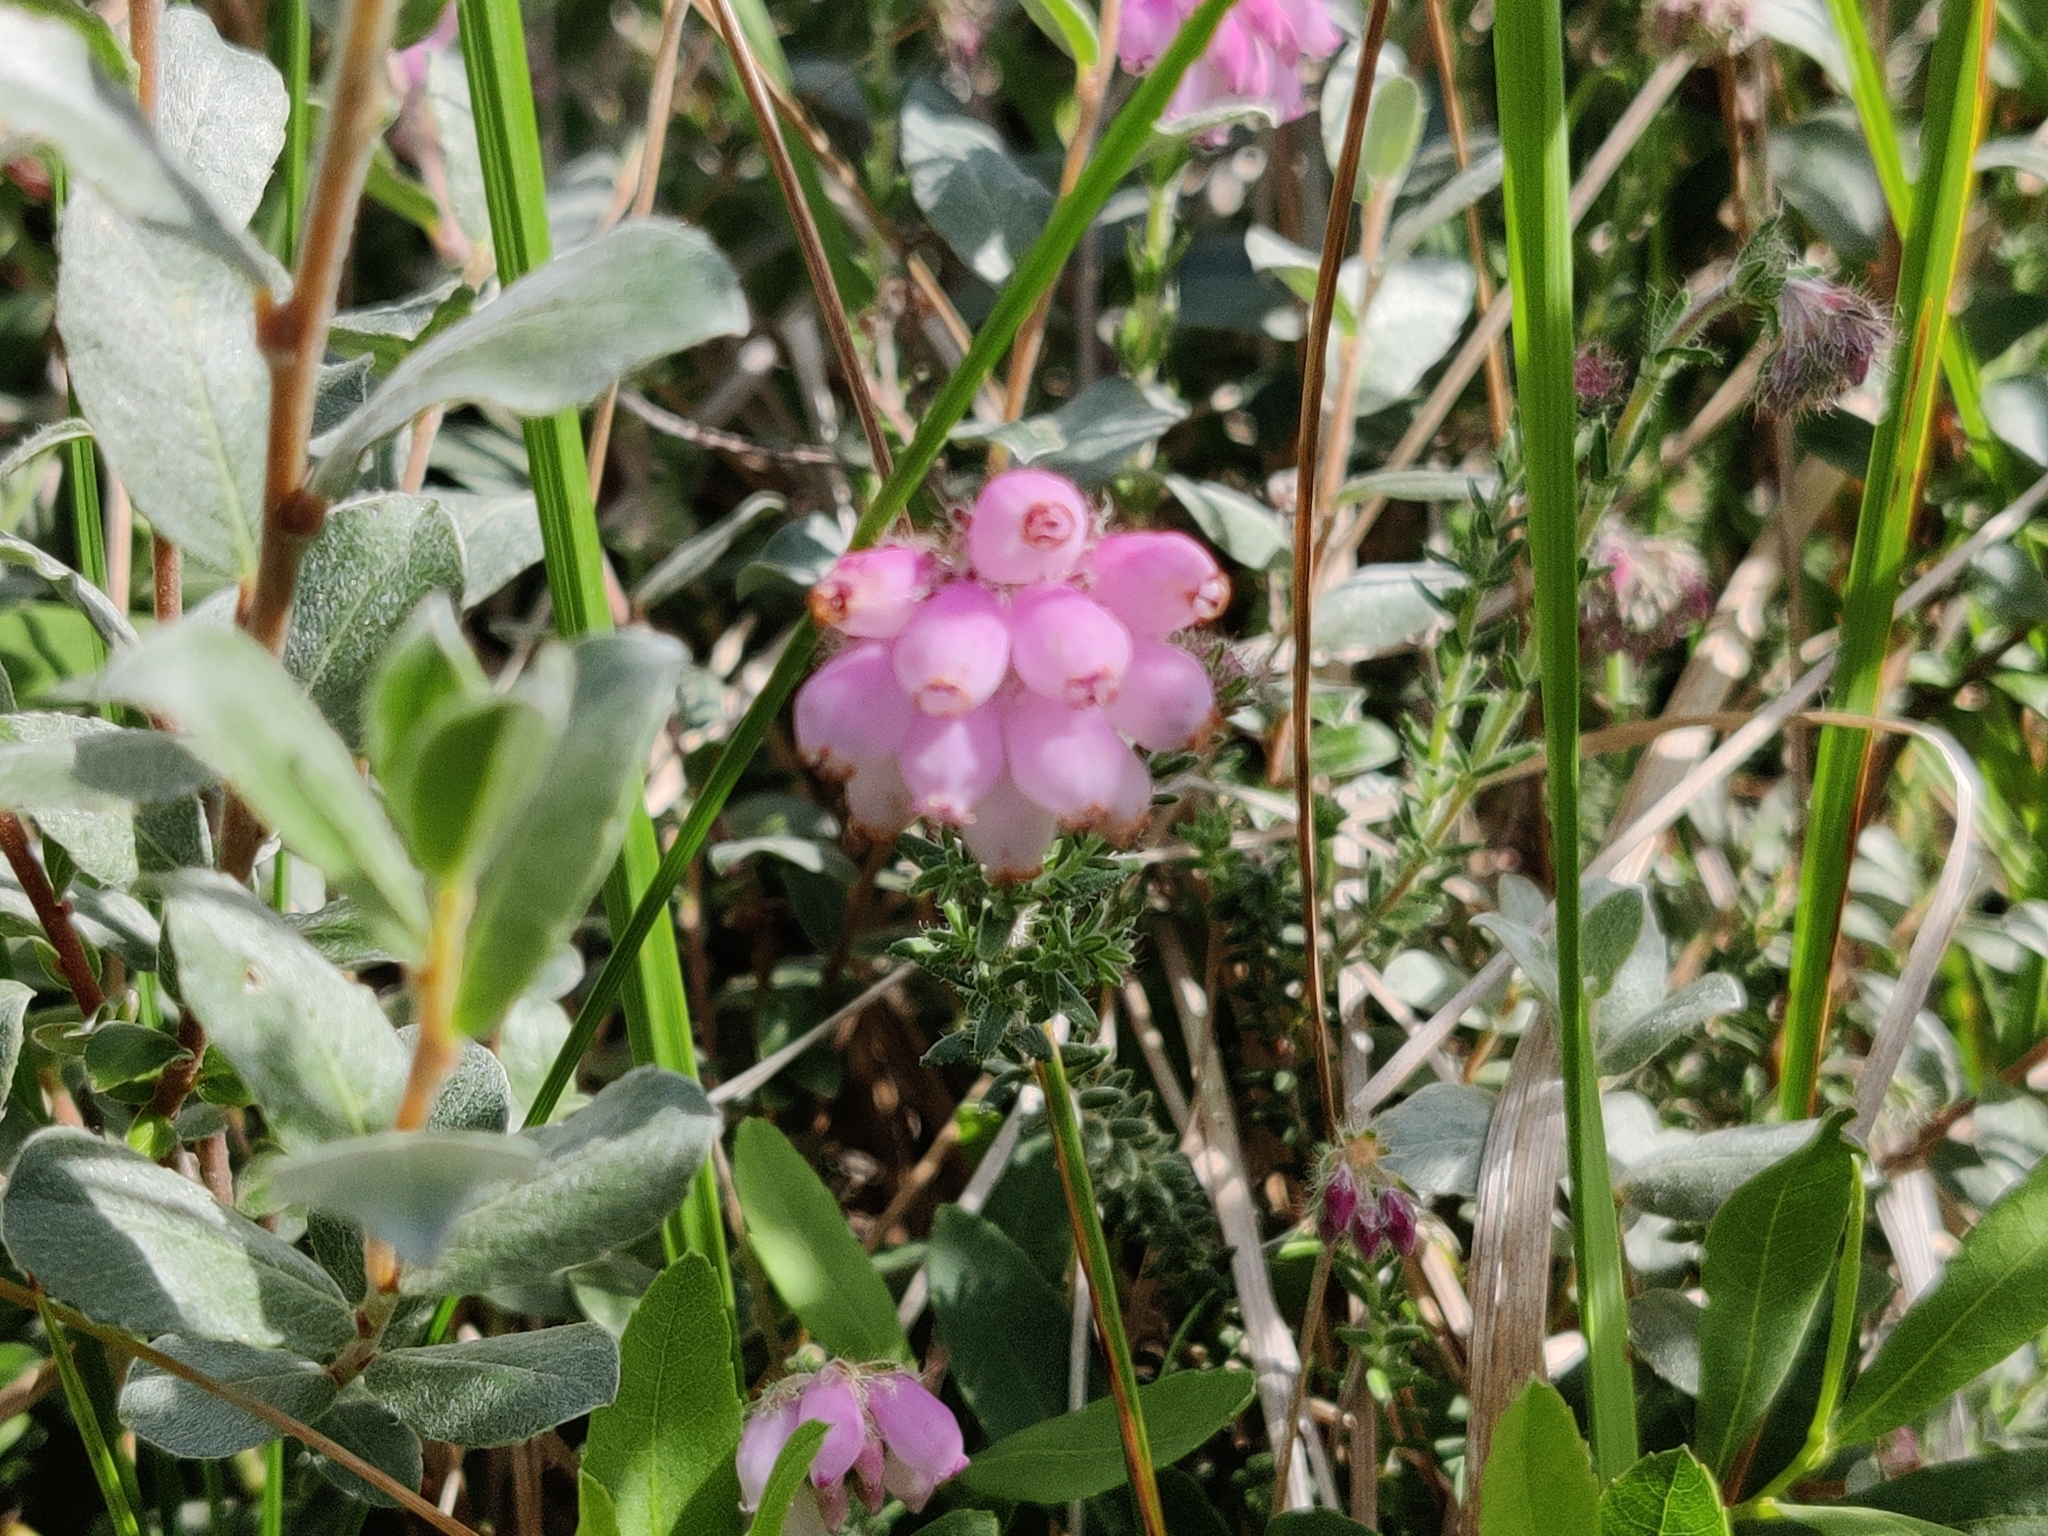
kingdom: Plantae
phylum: Tracheophyta
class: Magnoliopsida
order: Ericales
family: Ericaceae
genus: Erica
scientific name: Erica tetralix
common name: Cross-leaved heath
